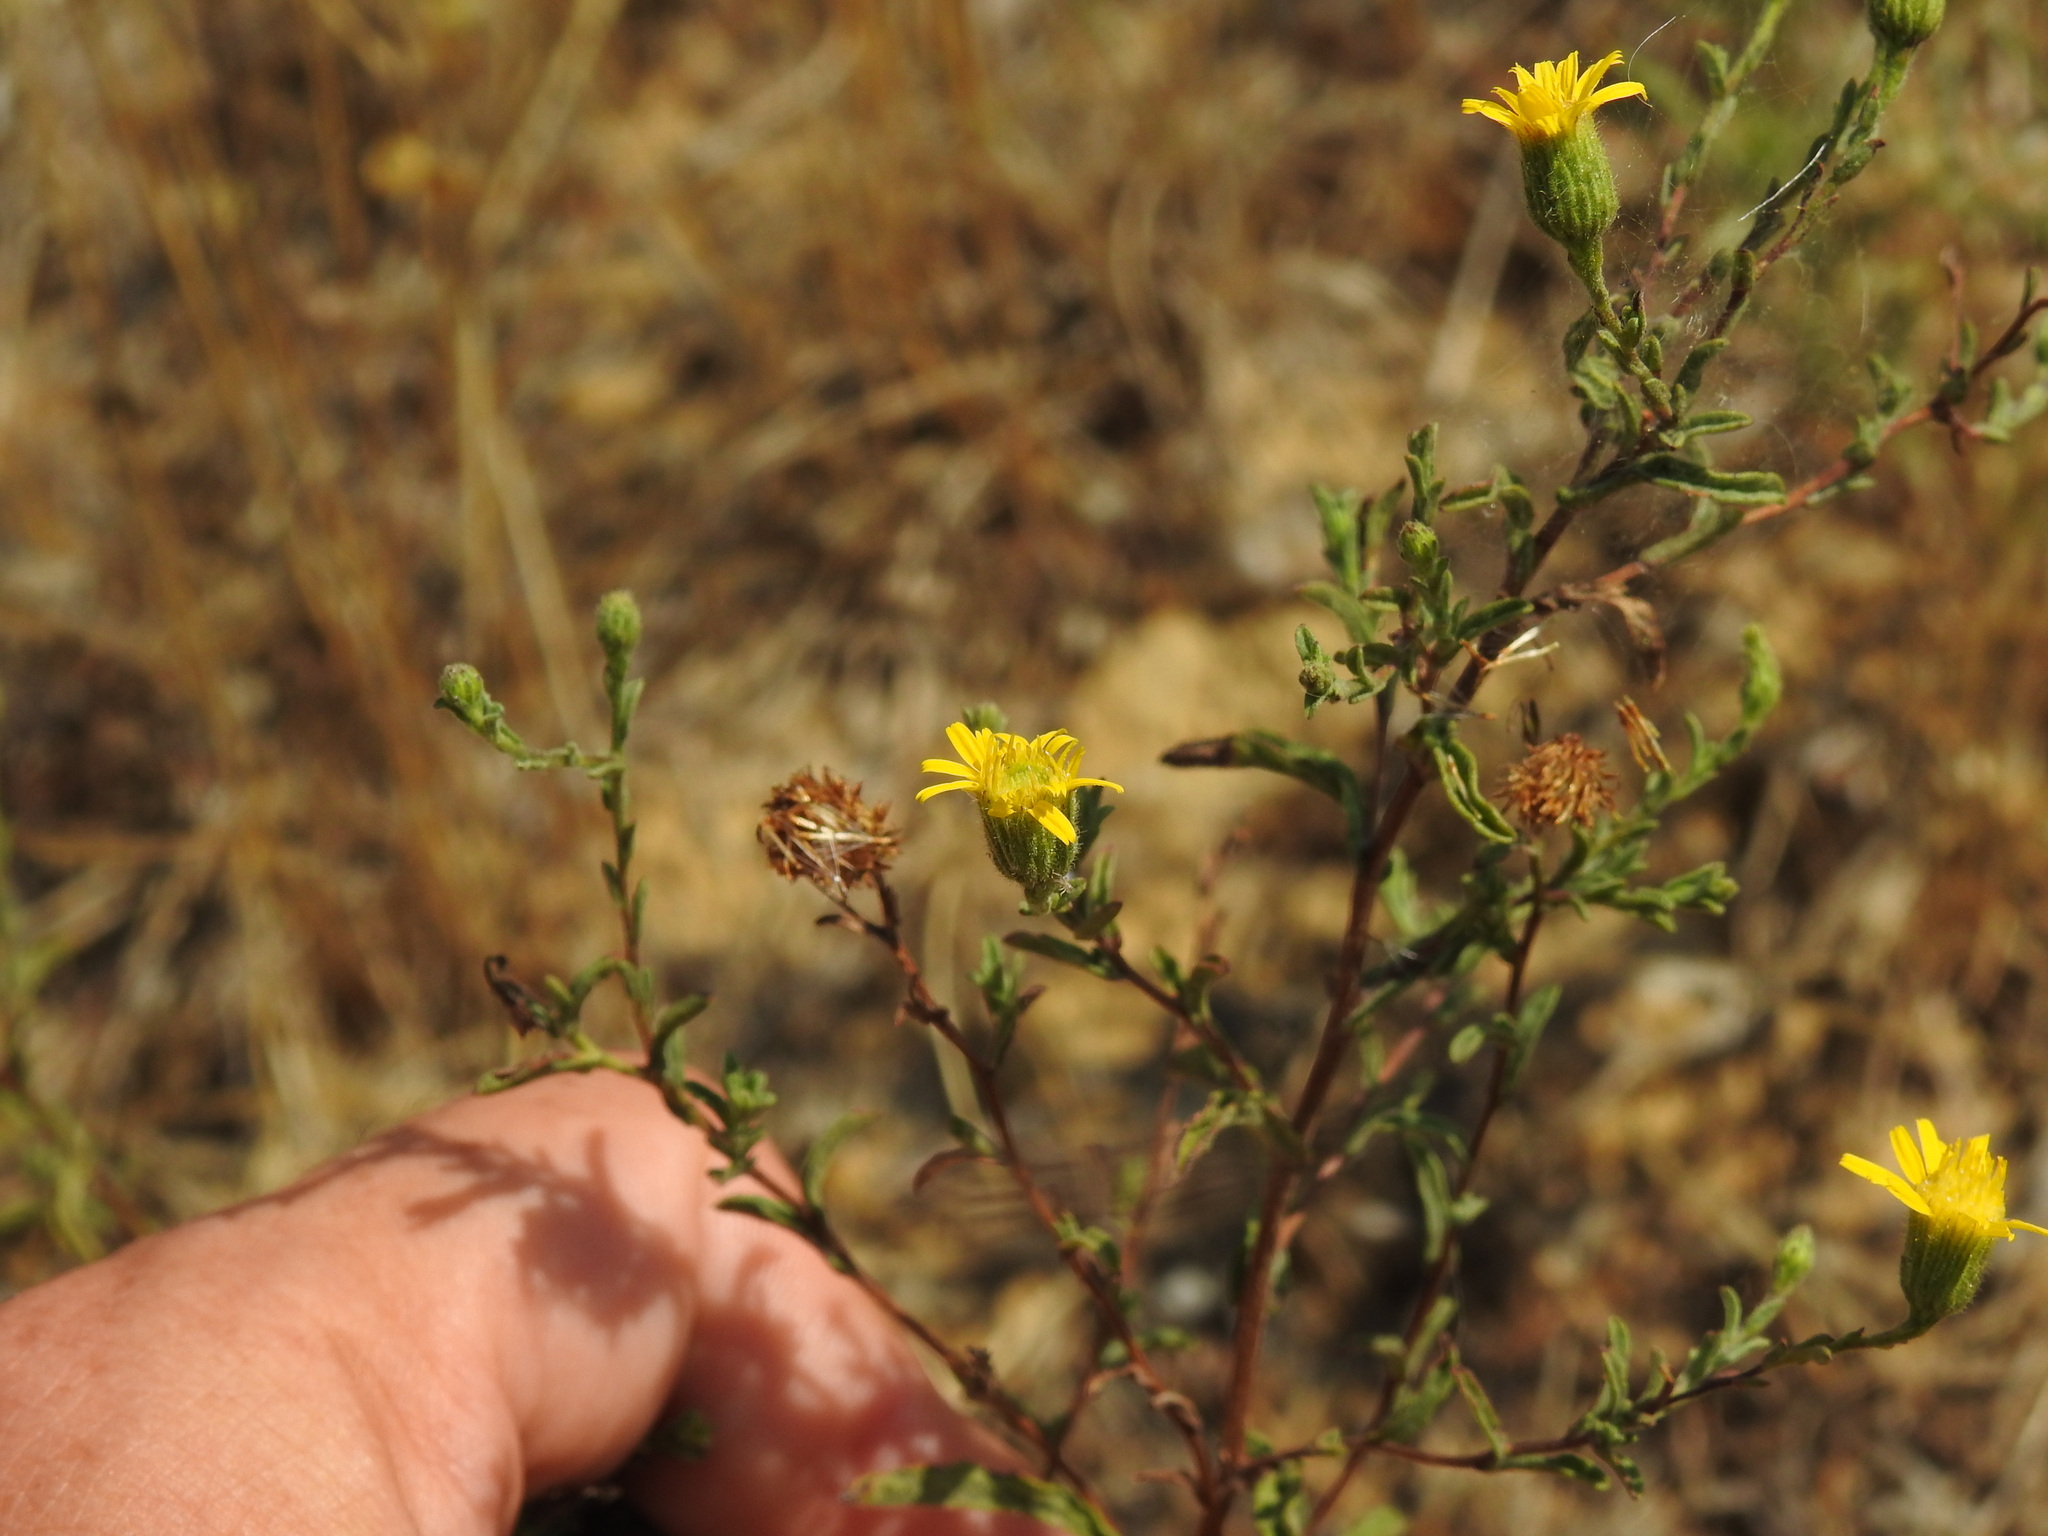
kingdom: Plantae
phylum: Tracheophyta
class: Magnoliopsida
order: Asterales
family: Asteraceae
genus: Pulicaria
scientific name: Pulicaria paludosa
